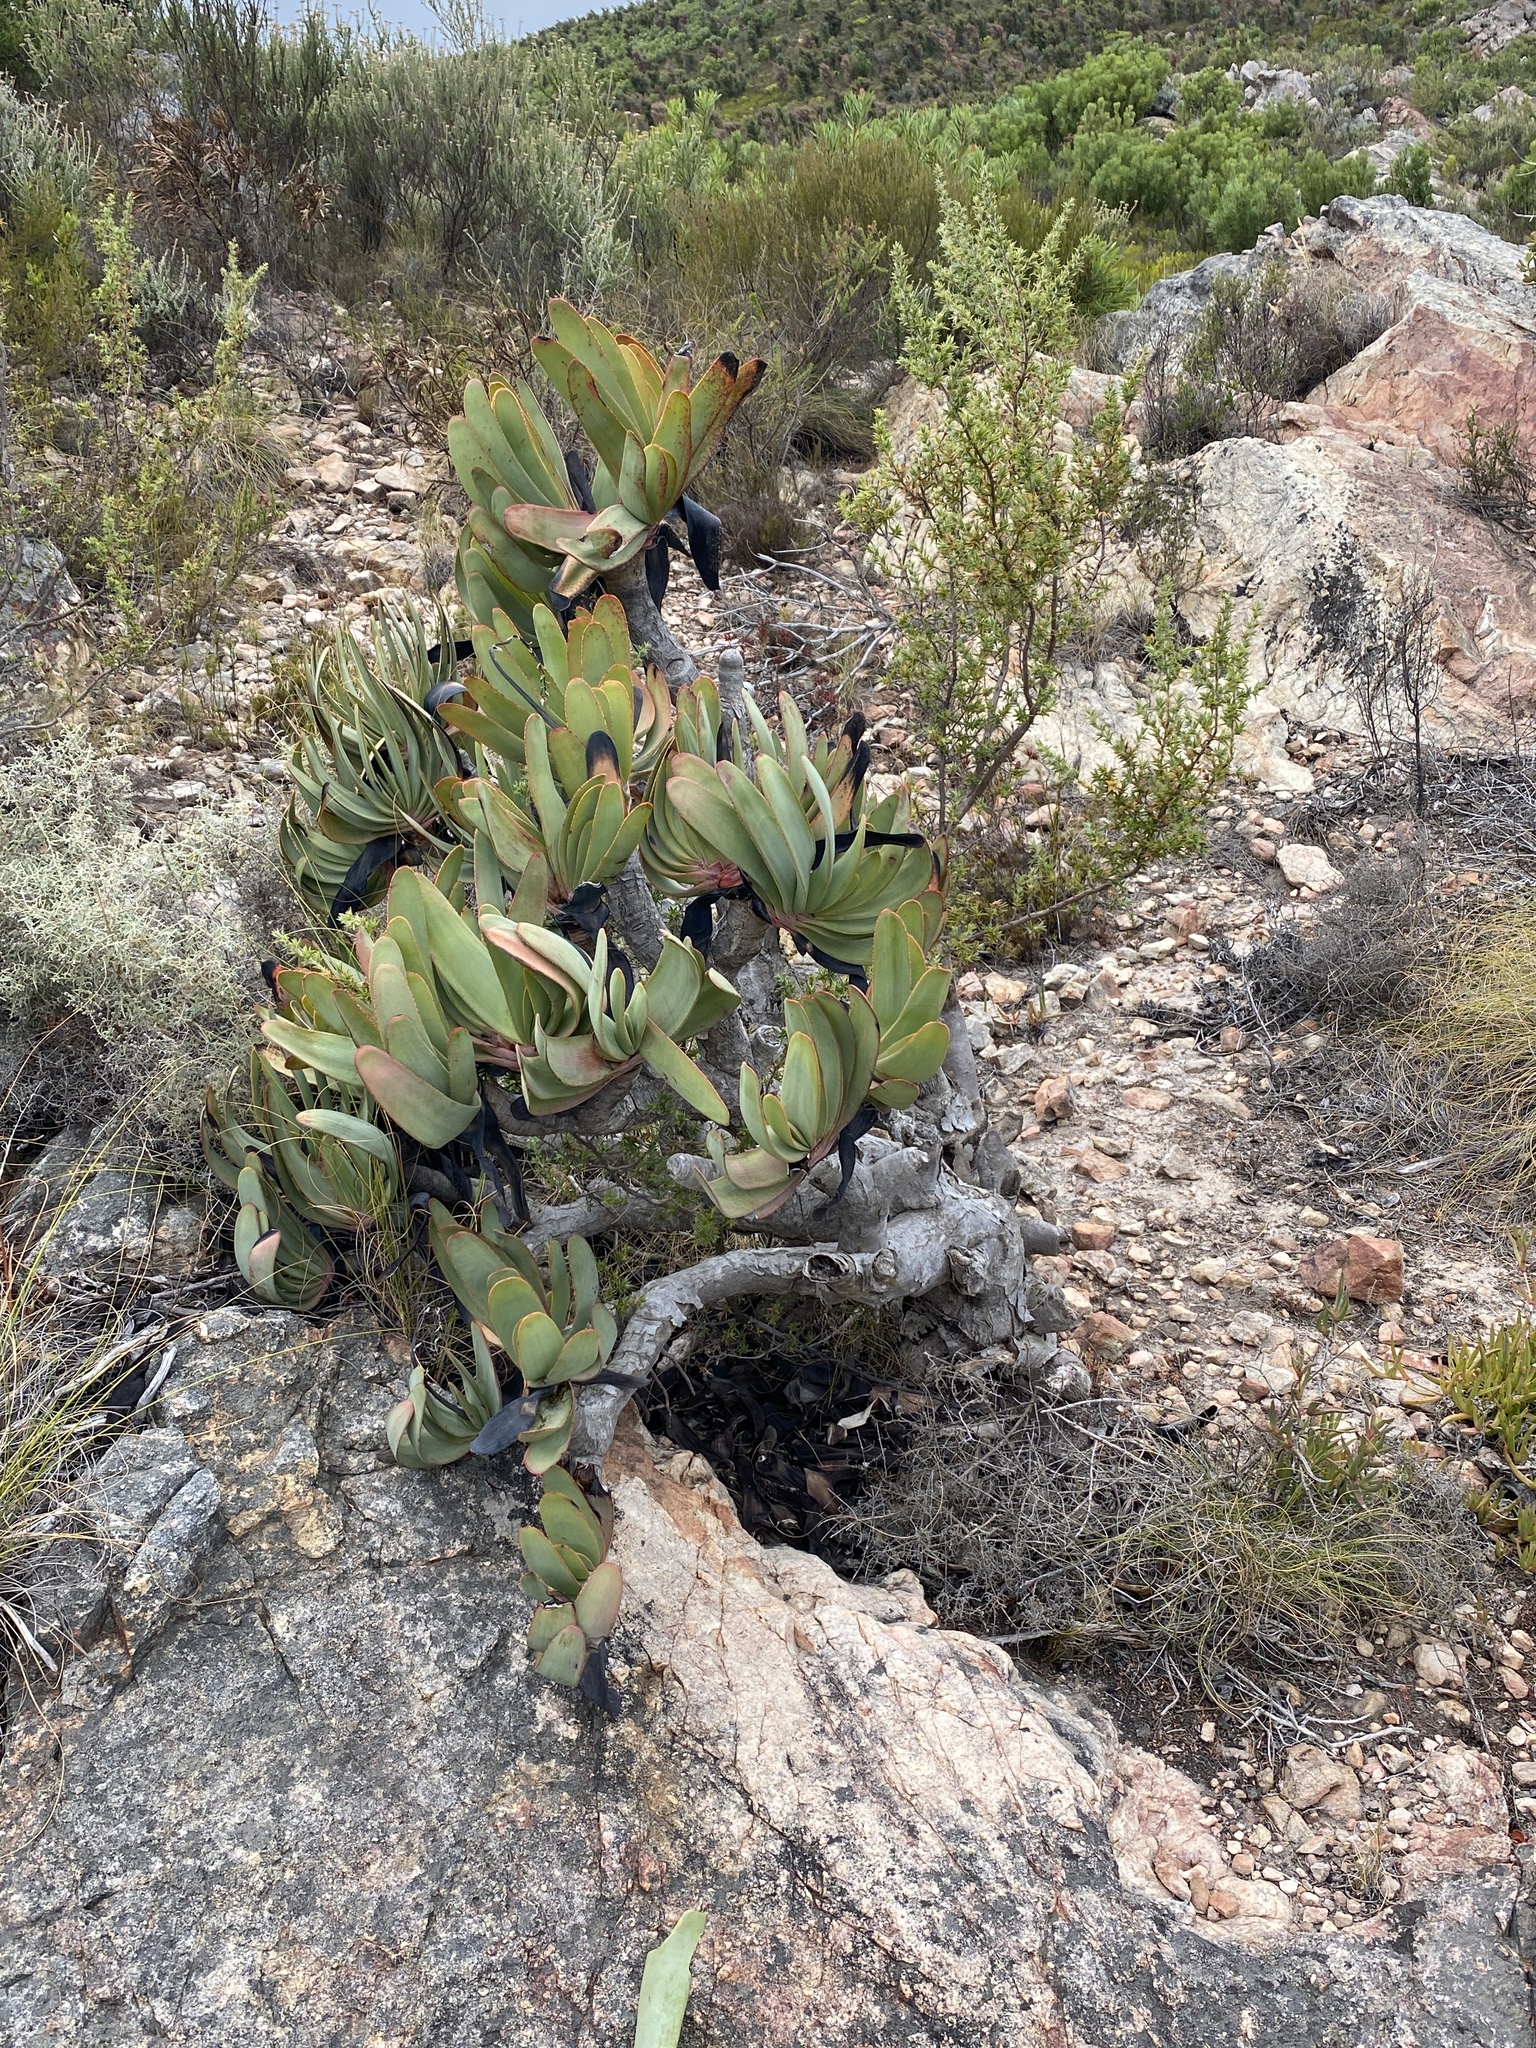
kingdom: Plantae
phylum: Tracheophyta
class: Liliopsida
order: Asparagales
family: Asphodelaceae
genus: Kumara
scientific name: Kumara plicatilis
